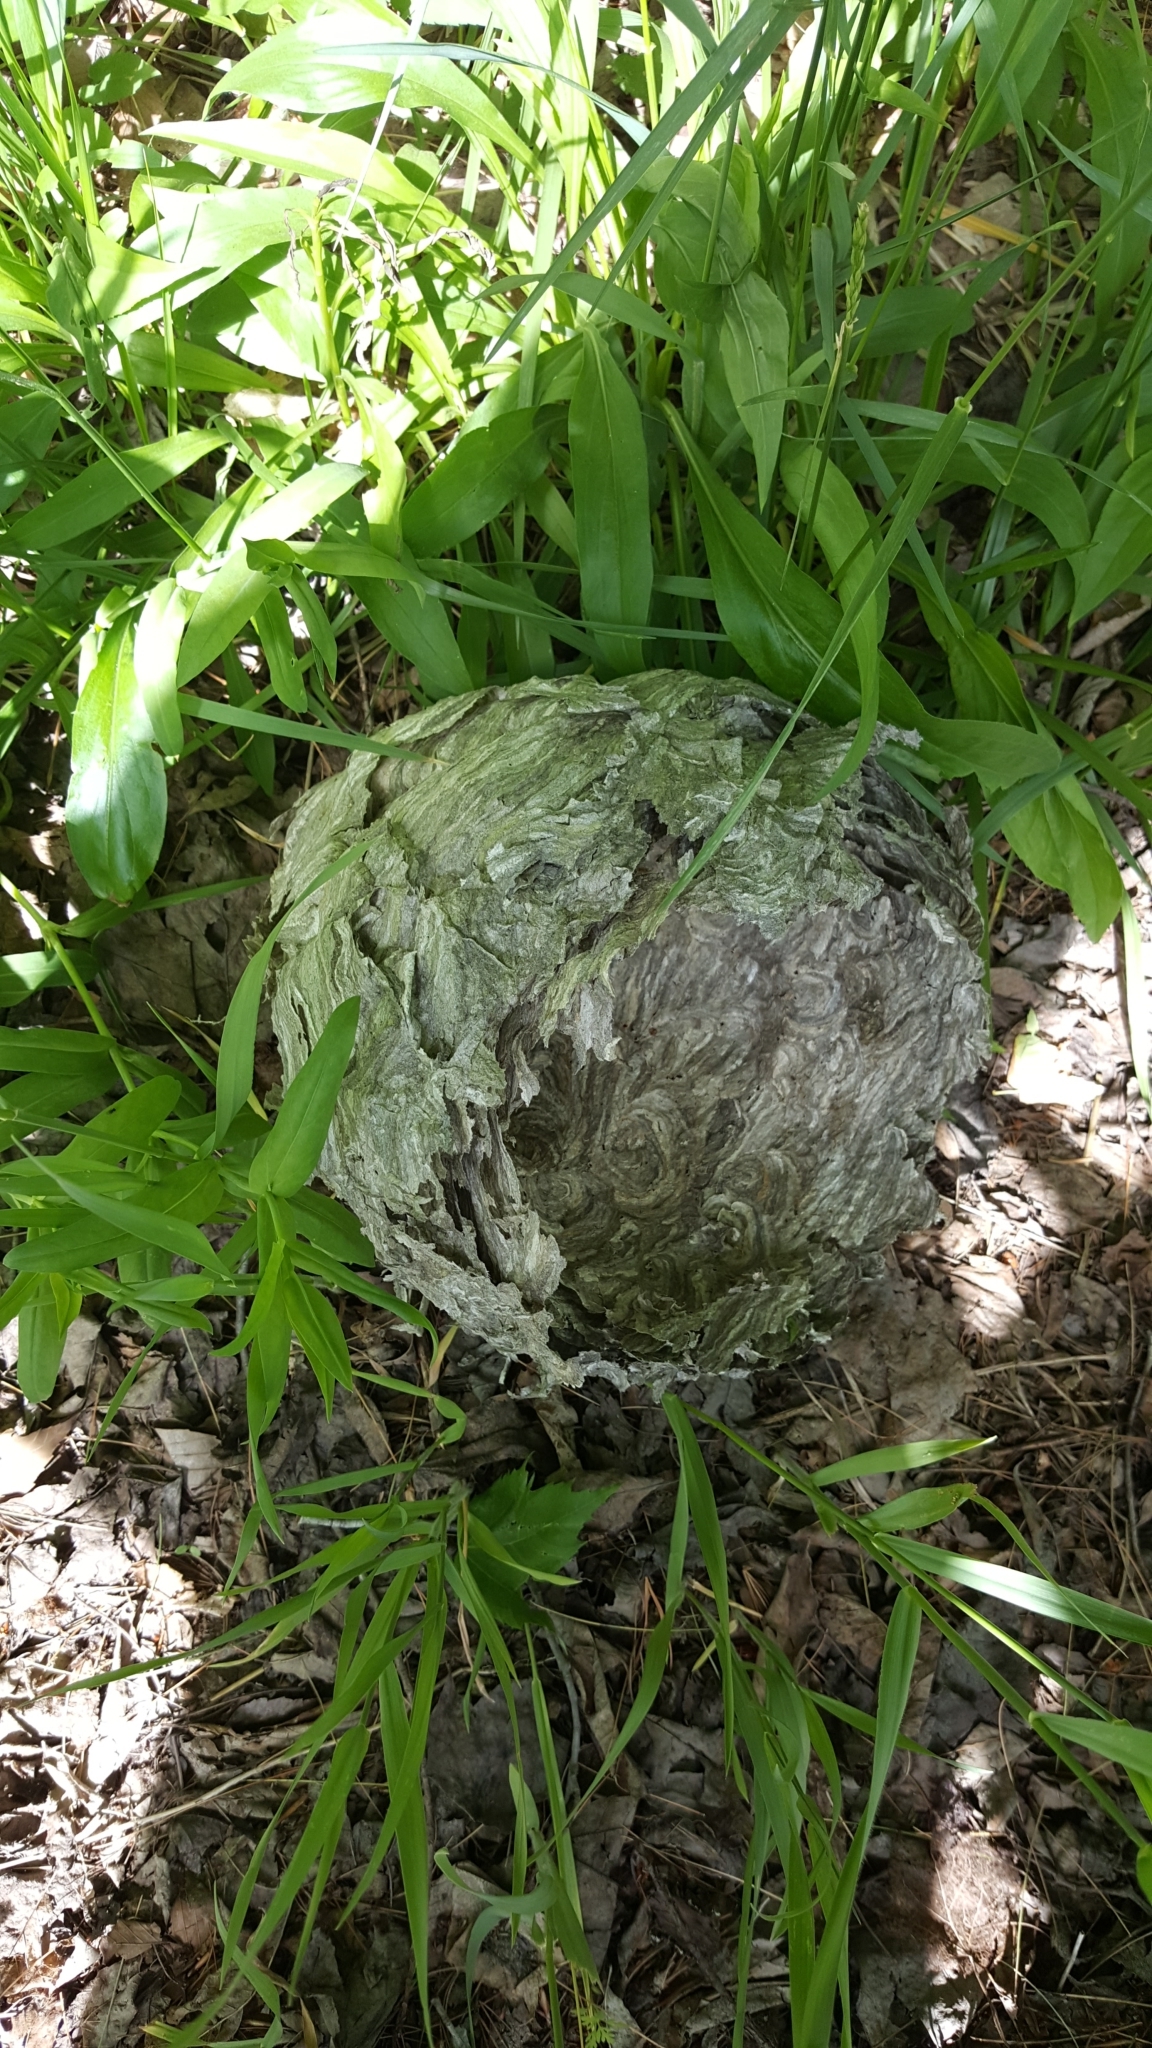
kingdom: Animalia
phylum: Arthropoda
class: Insecta
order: Hymenoptera
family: Vespidae
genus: Dolichovespula
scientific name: Dolichovespula
